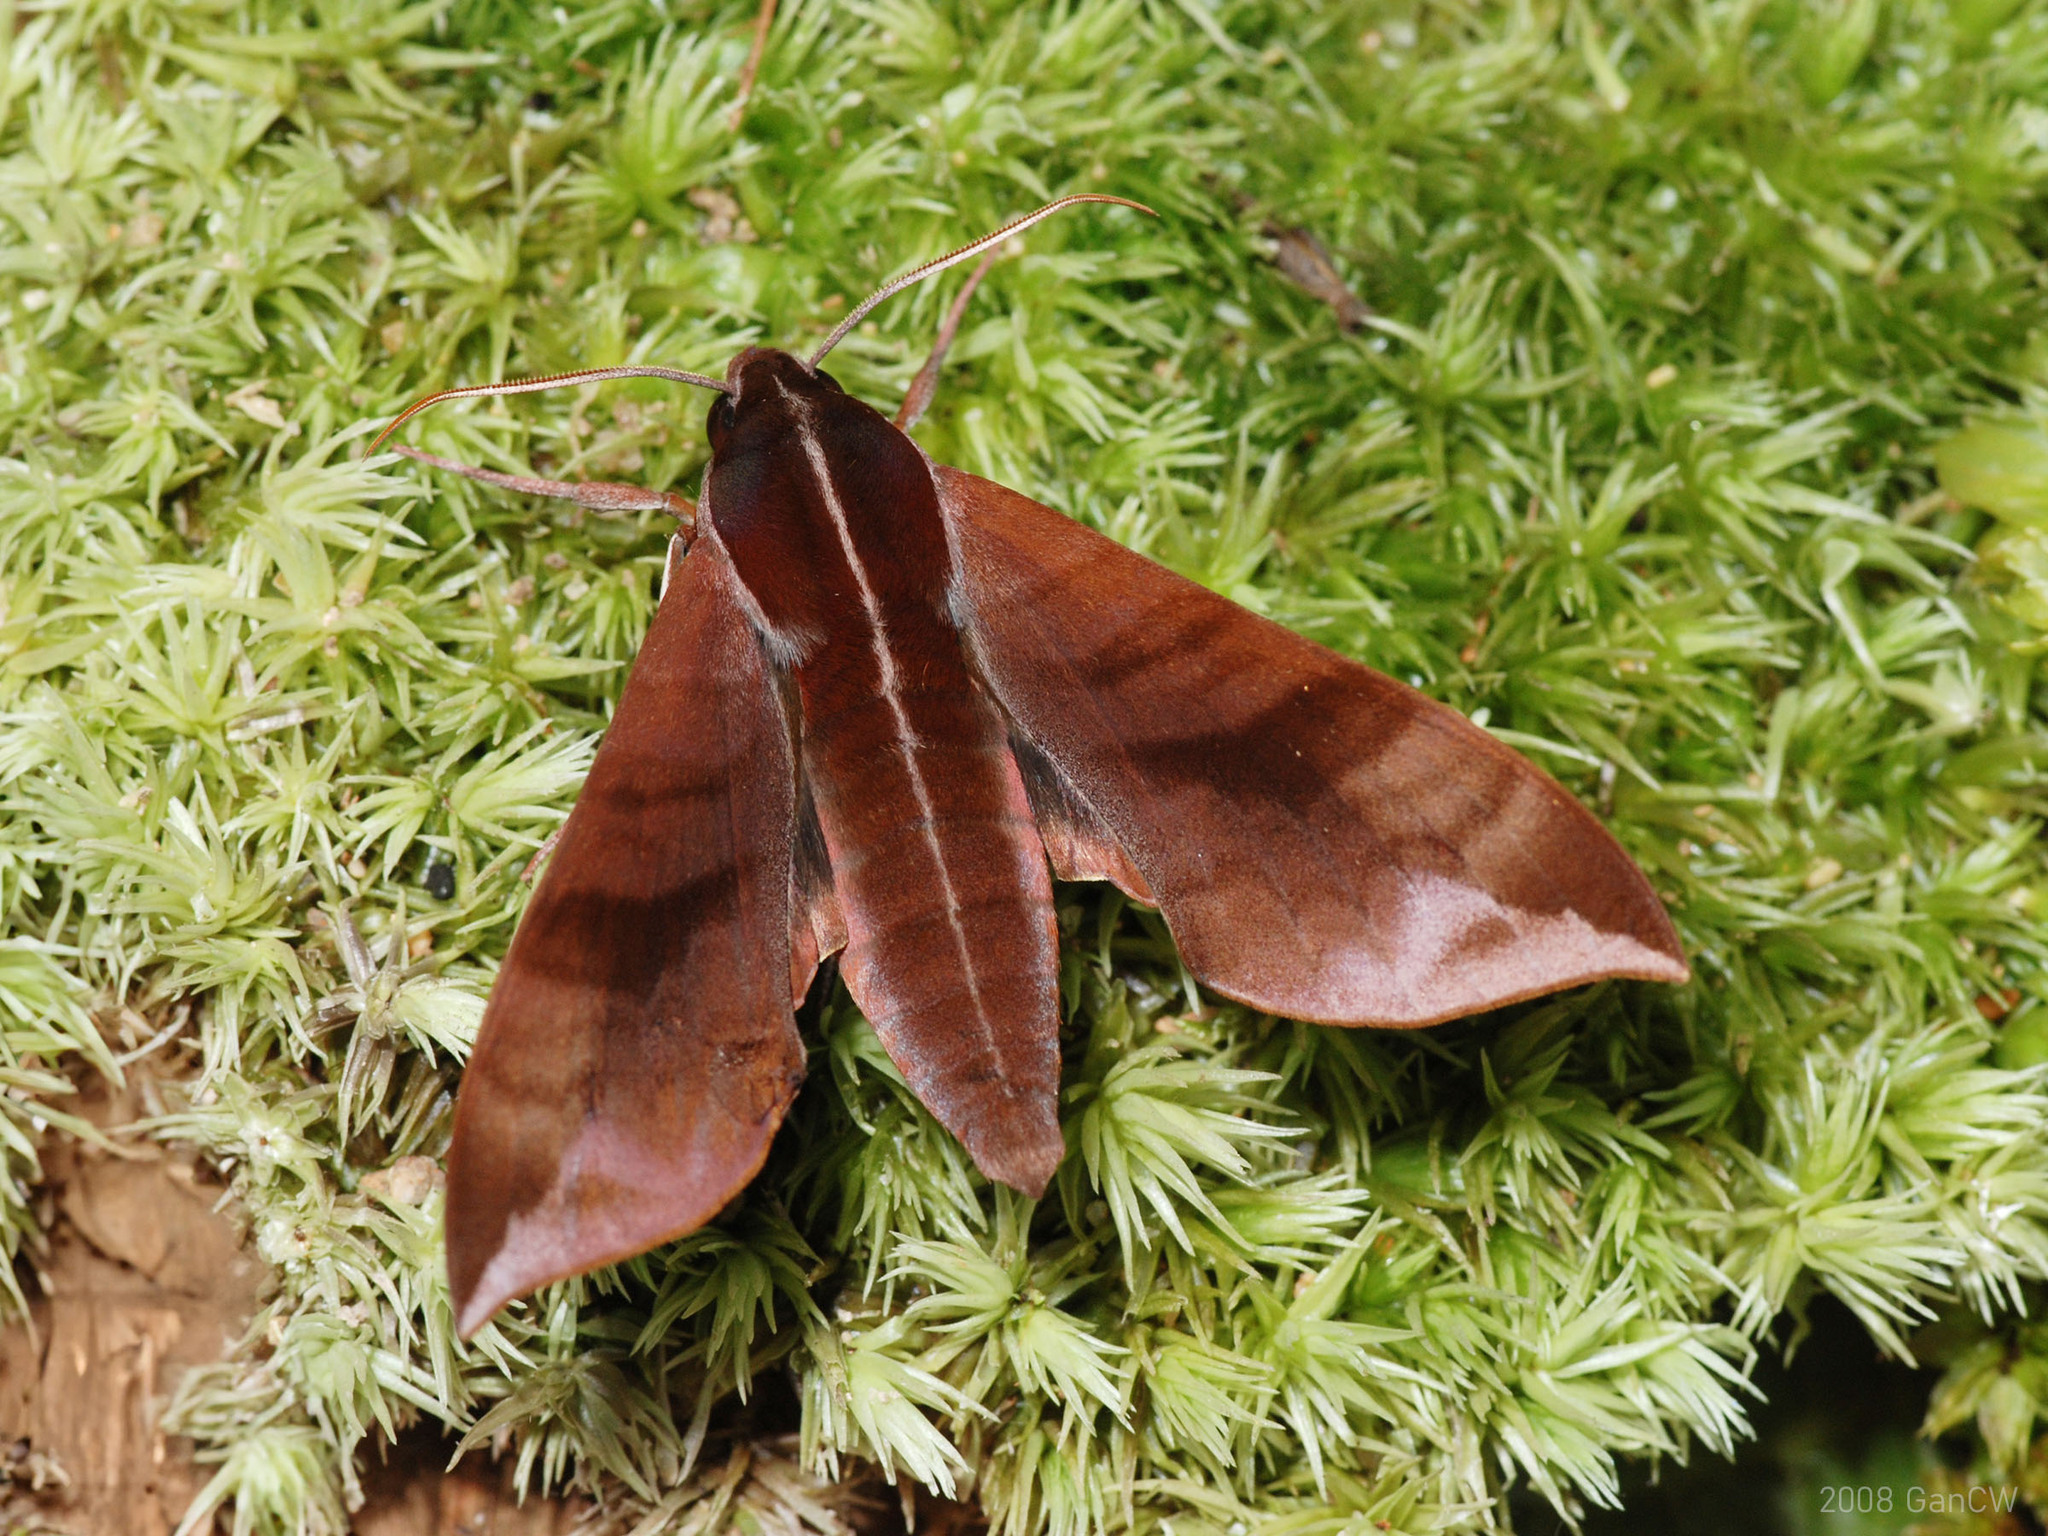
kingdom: Animalia
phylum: Arthropoda
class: Insecta
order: Lepidoptera
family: Sphingidae
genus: Ampelophaga
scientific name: Ampelophaga rubiginosa
